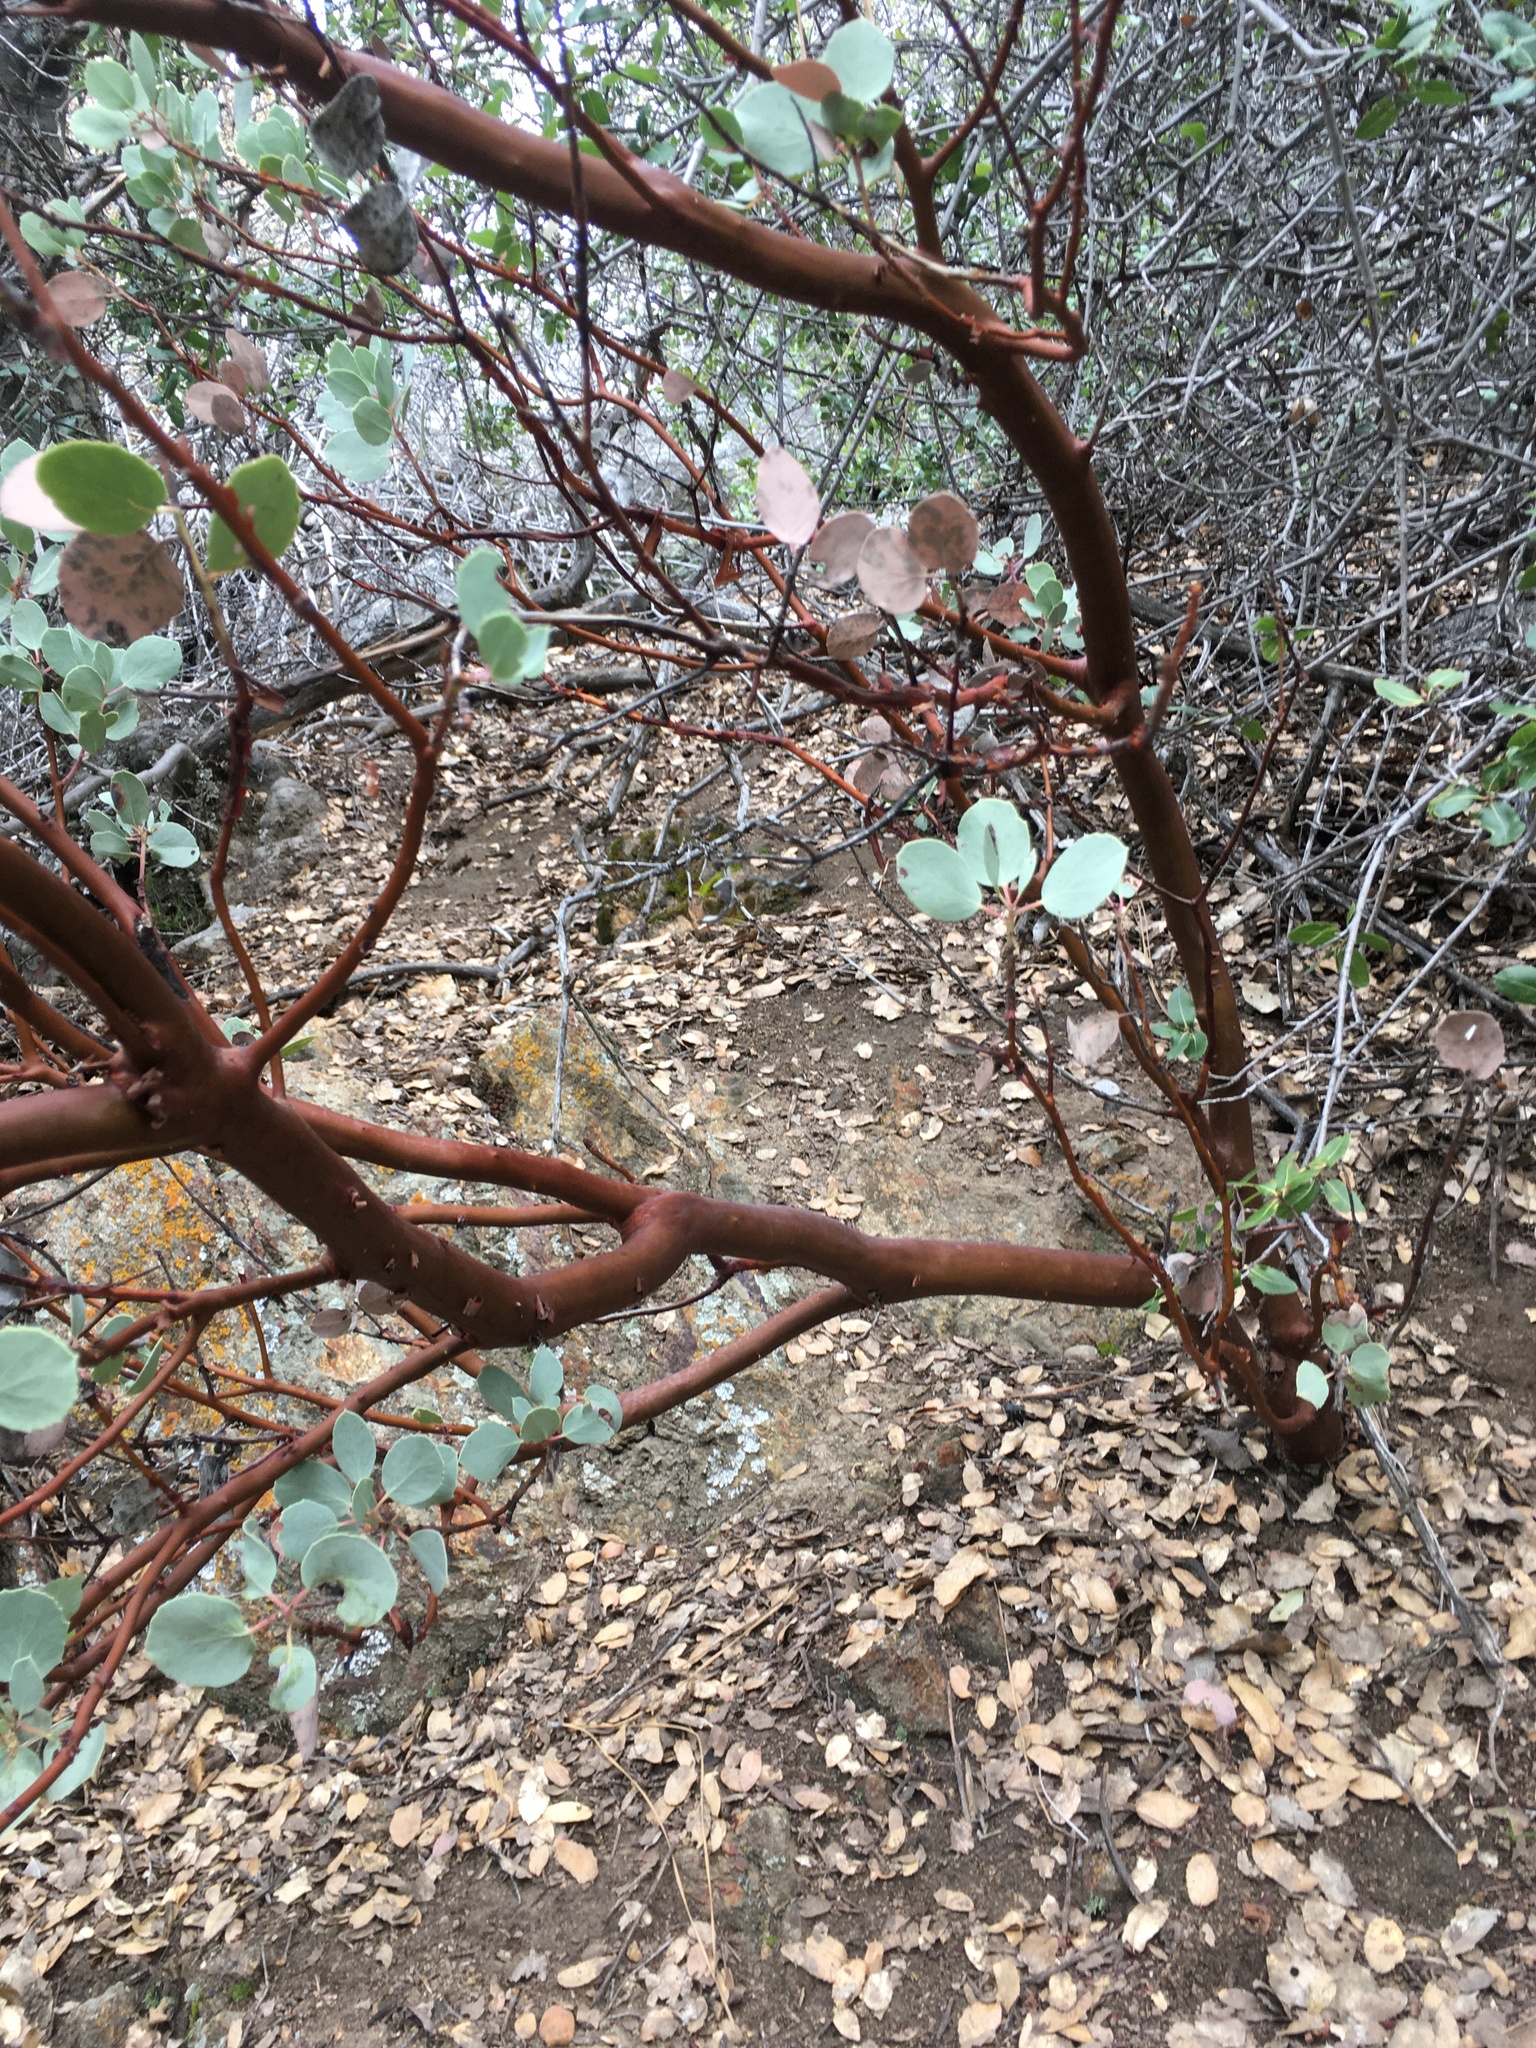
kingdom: Plantae
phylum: Tracheophyta
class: Magnoliopsida
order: Ericales
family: Ericaceae
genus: Arctostaphylos
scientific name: Arctostaphylos viscida
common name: White-leaf manzanita
